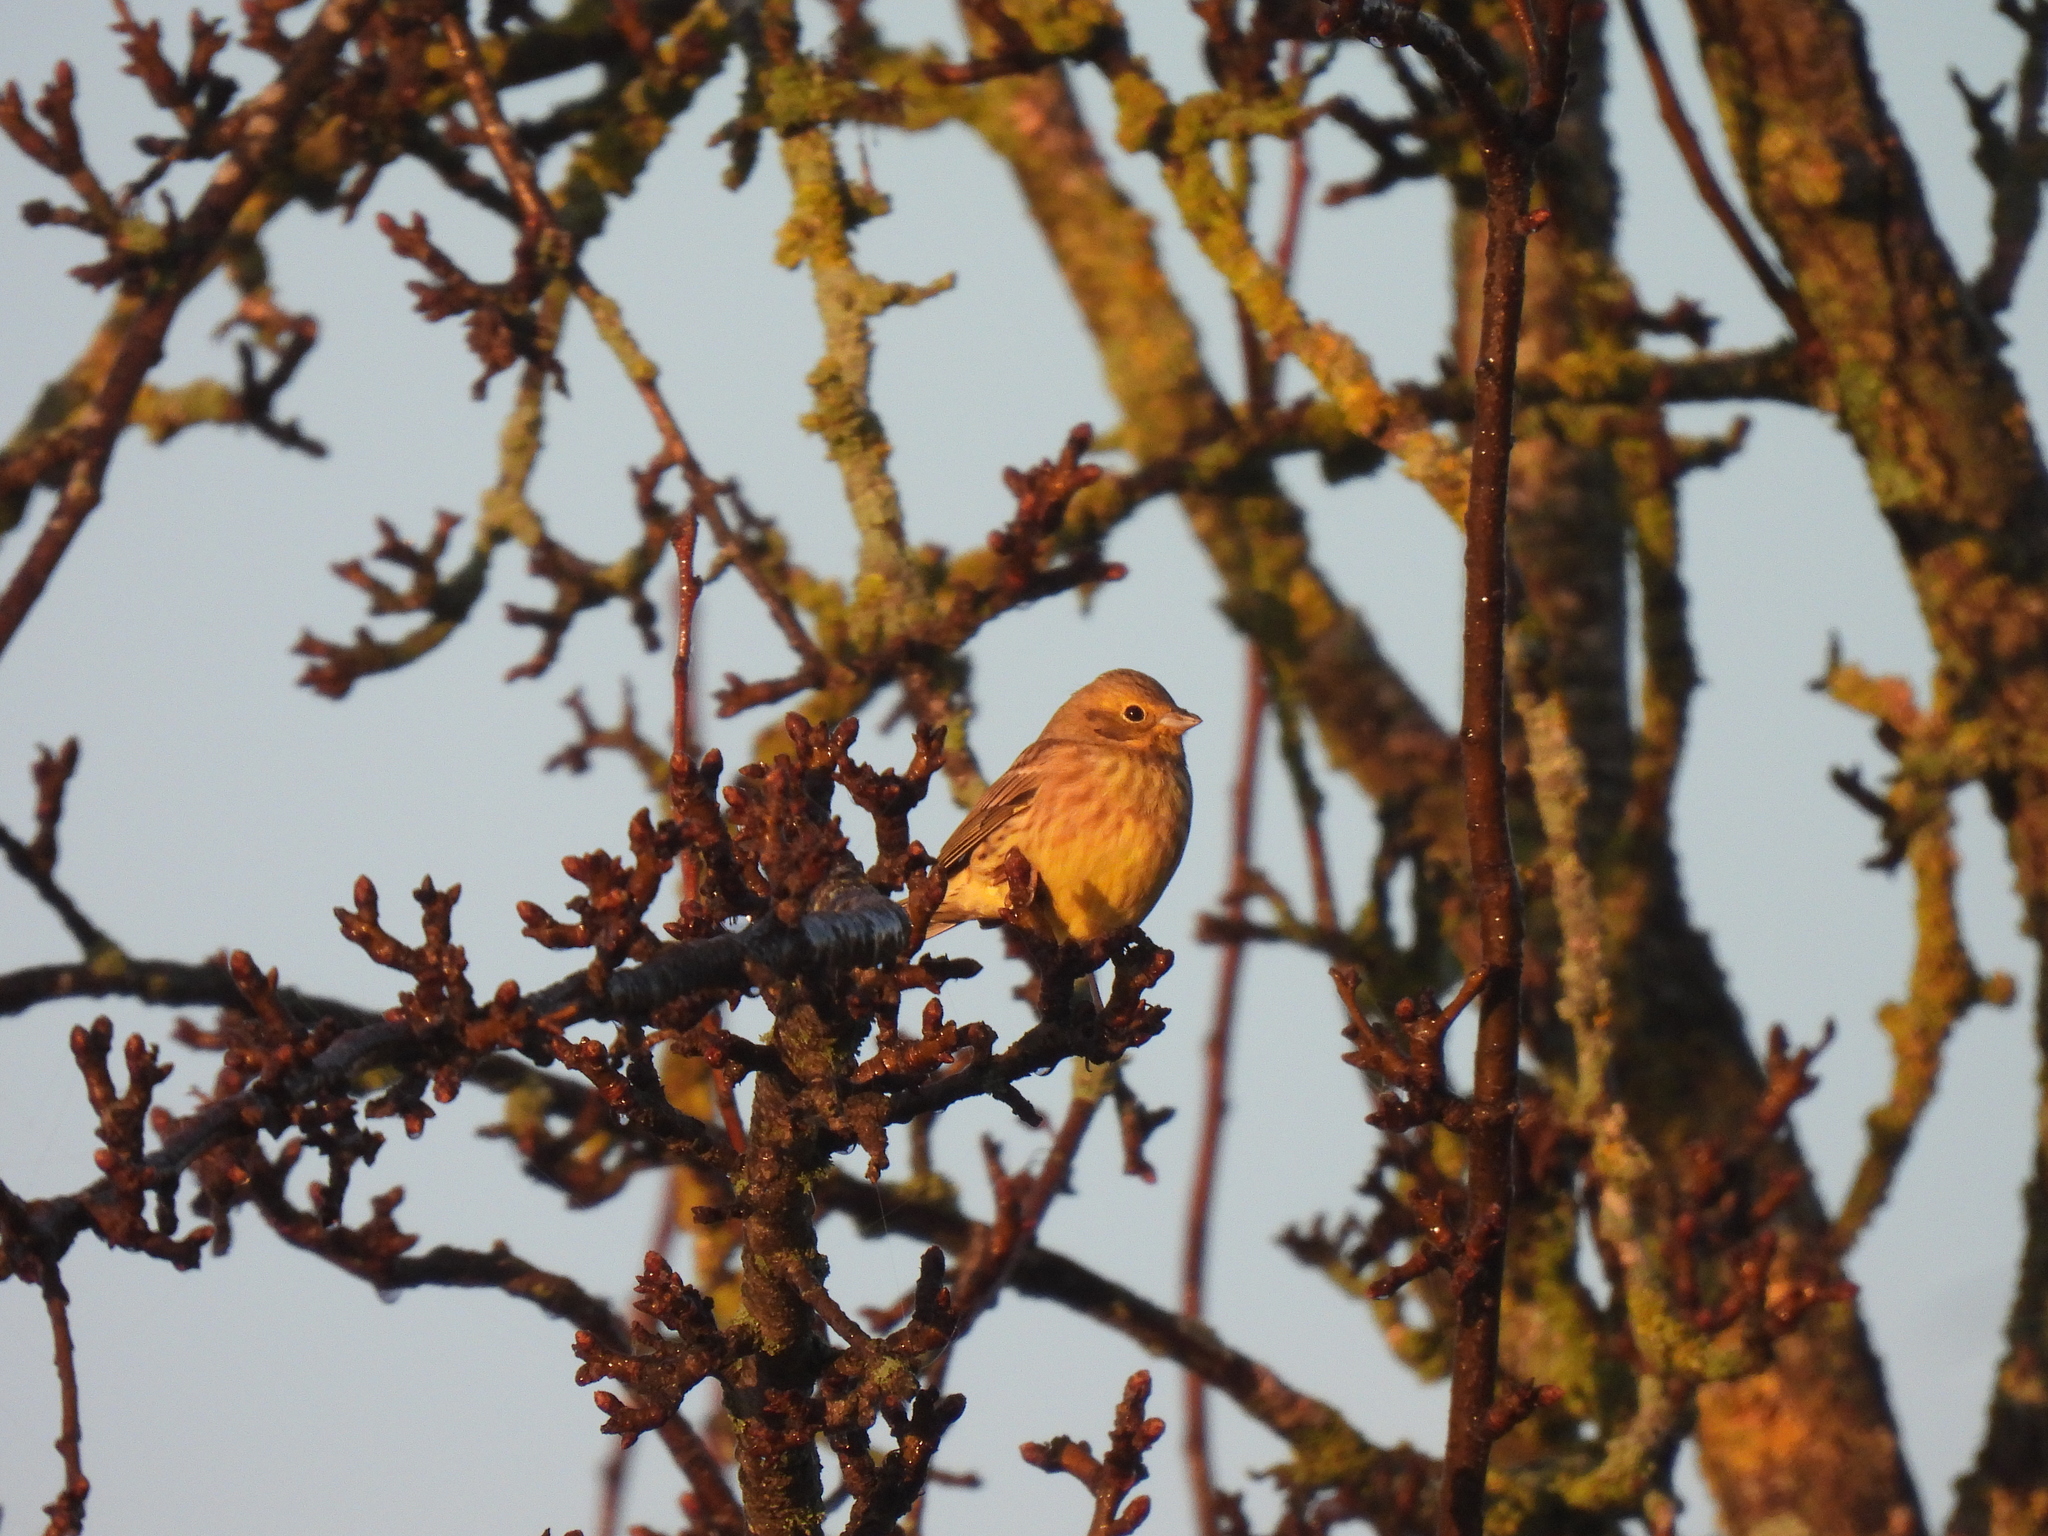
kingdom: Animalia
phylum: Chordata
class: Aves
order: Passeriformes
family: Emberizidae
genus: Emberiza
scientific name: Emberiza citrinella
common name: Yellowhammer
